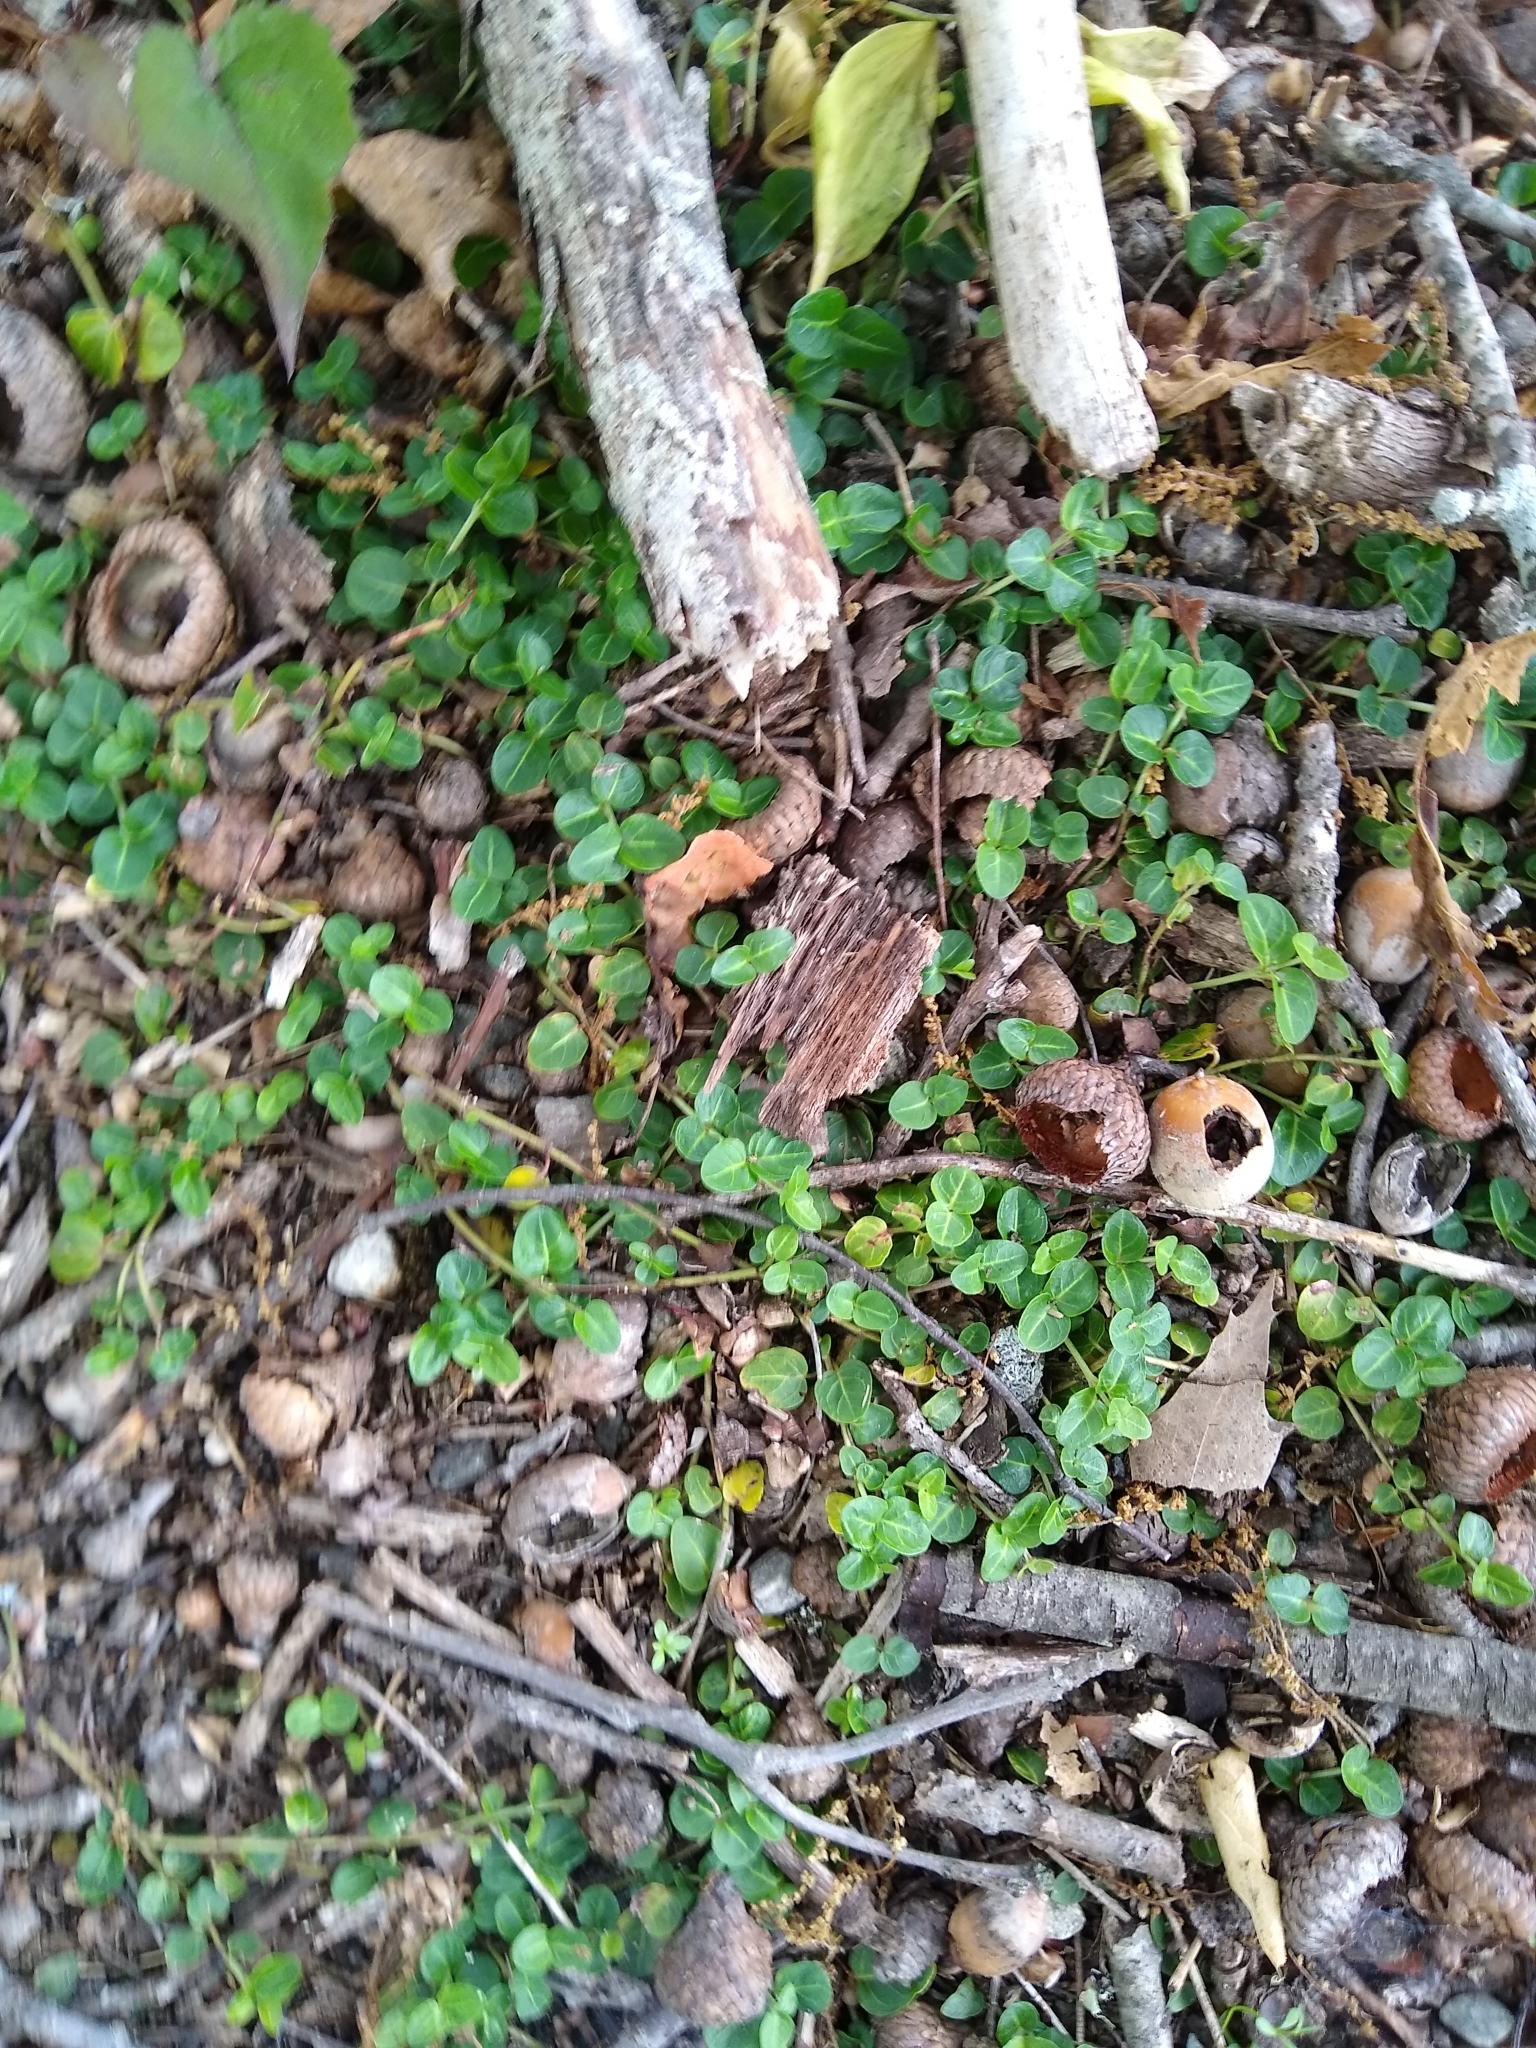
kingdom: Plantae
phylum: Tracheophyta
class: Magnoliopsida
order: Gentianales
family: Rubiaceae
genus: Mitchella
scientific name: Mitchella repens
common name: Partridge-berry
